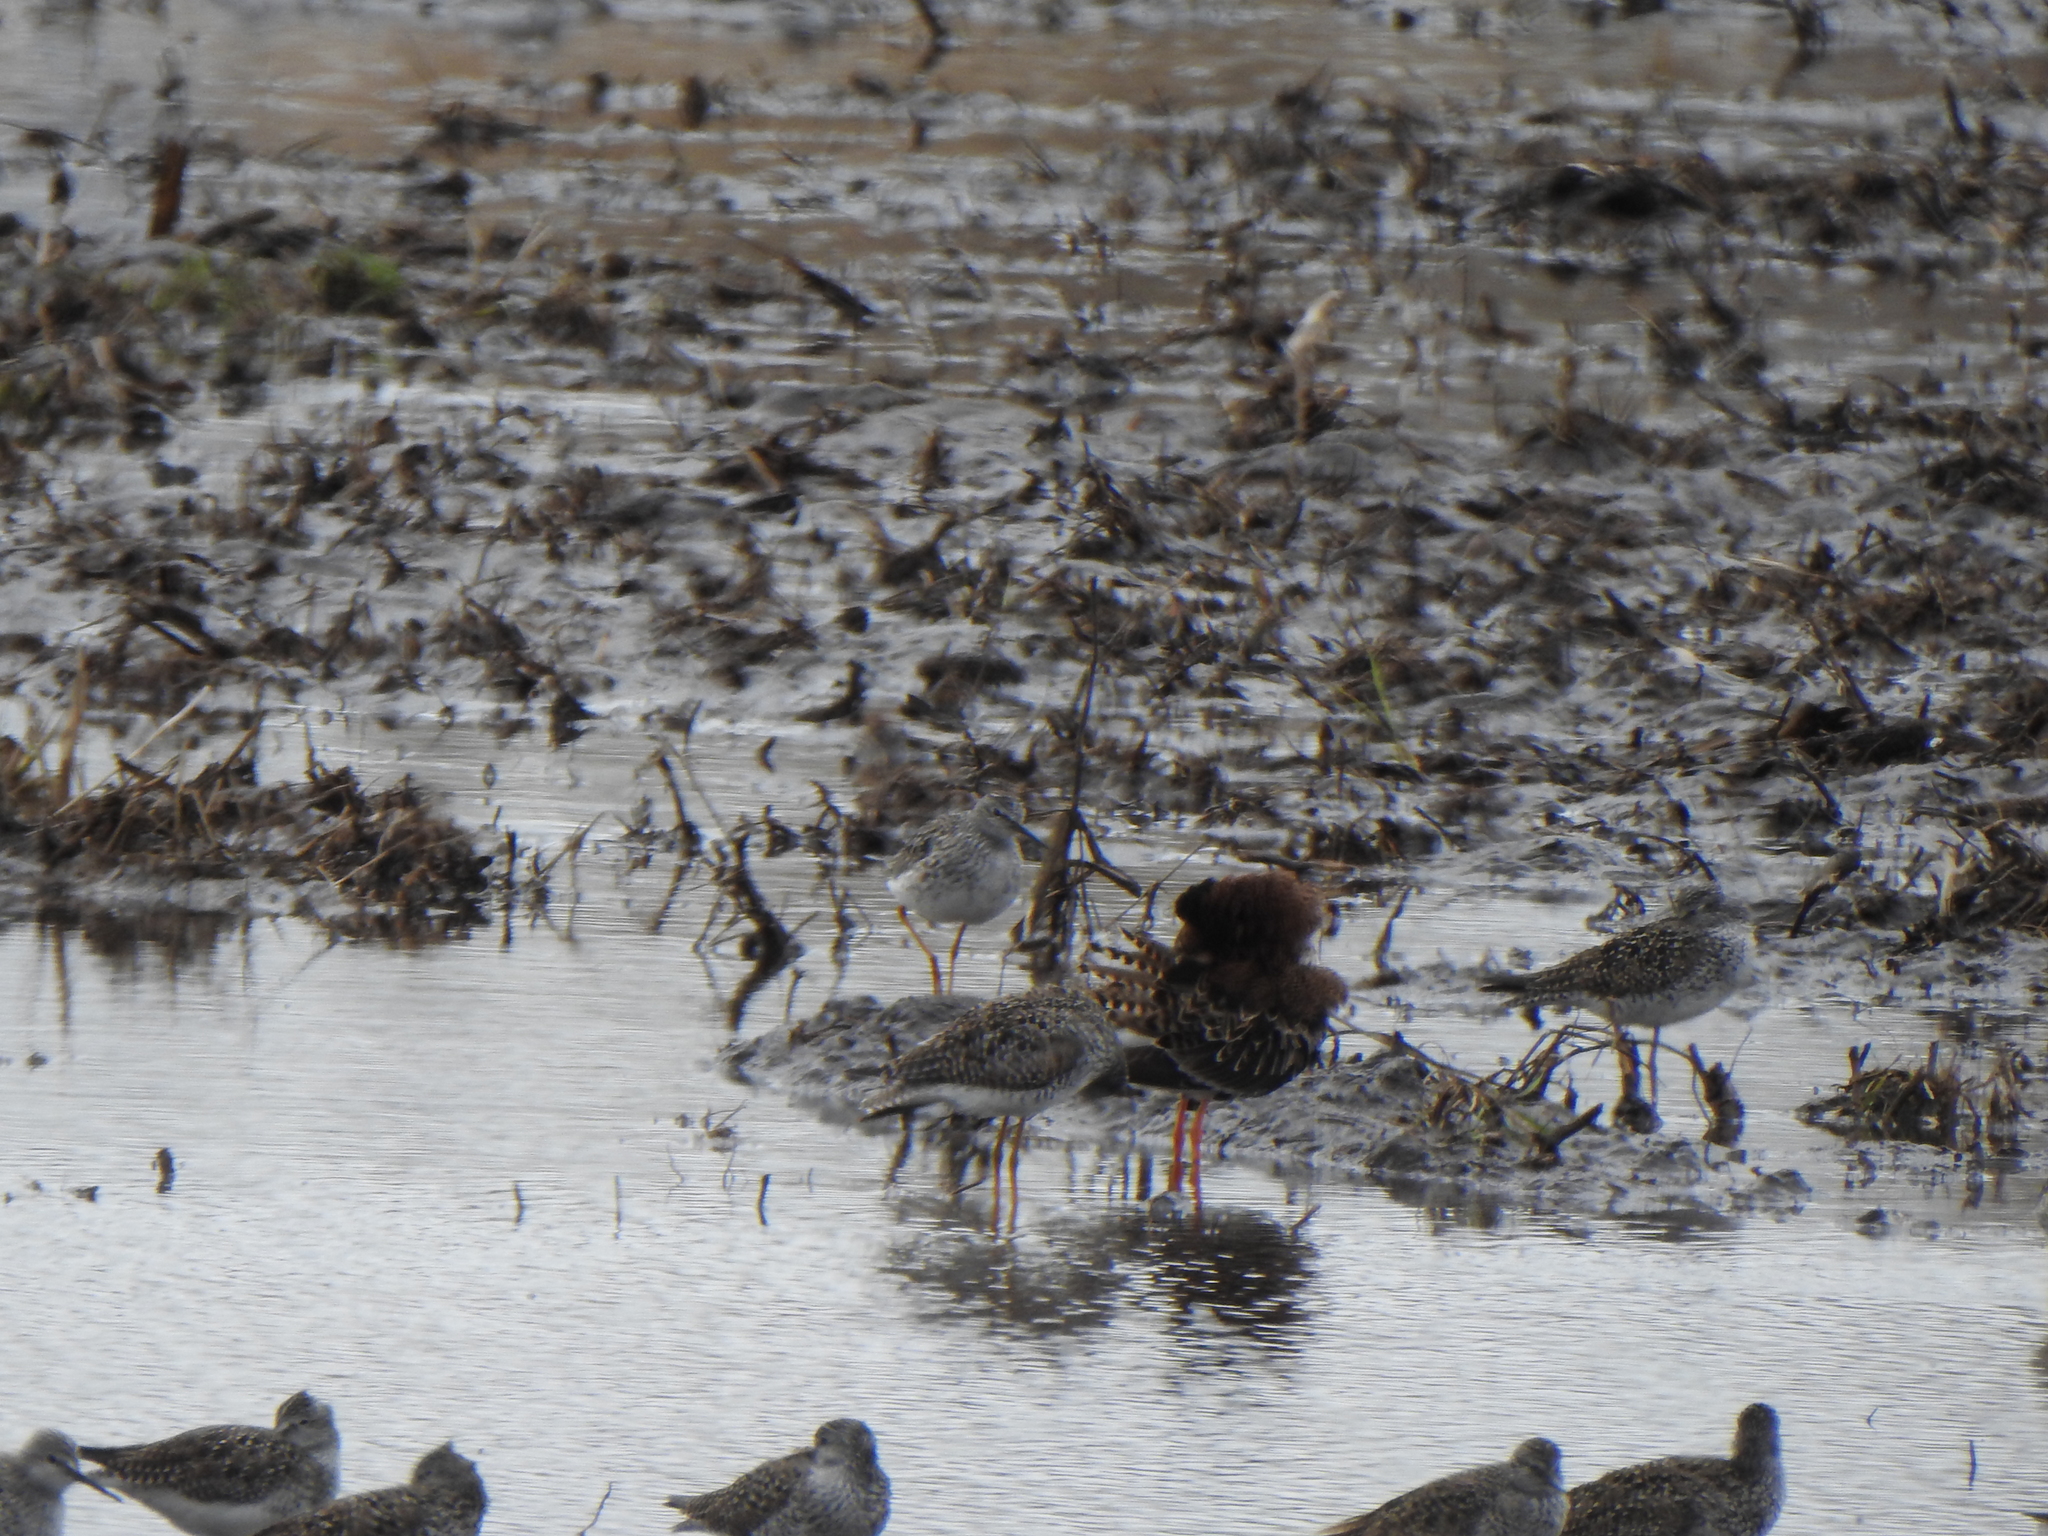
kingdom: Animalia
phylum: Chordata
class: Aves
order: Charadriiformes
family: Scolopacidae
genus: Tringa
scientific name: Tringa flavipes
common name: Lesser yellowlegs
